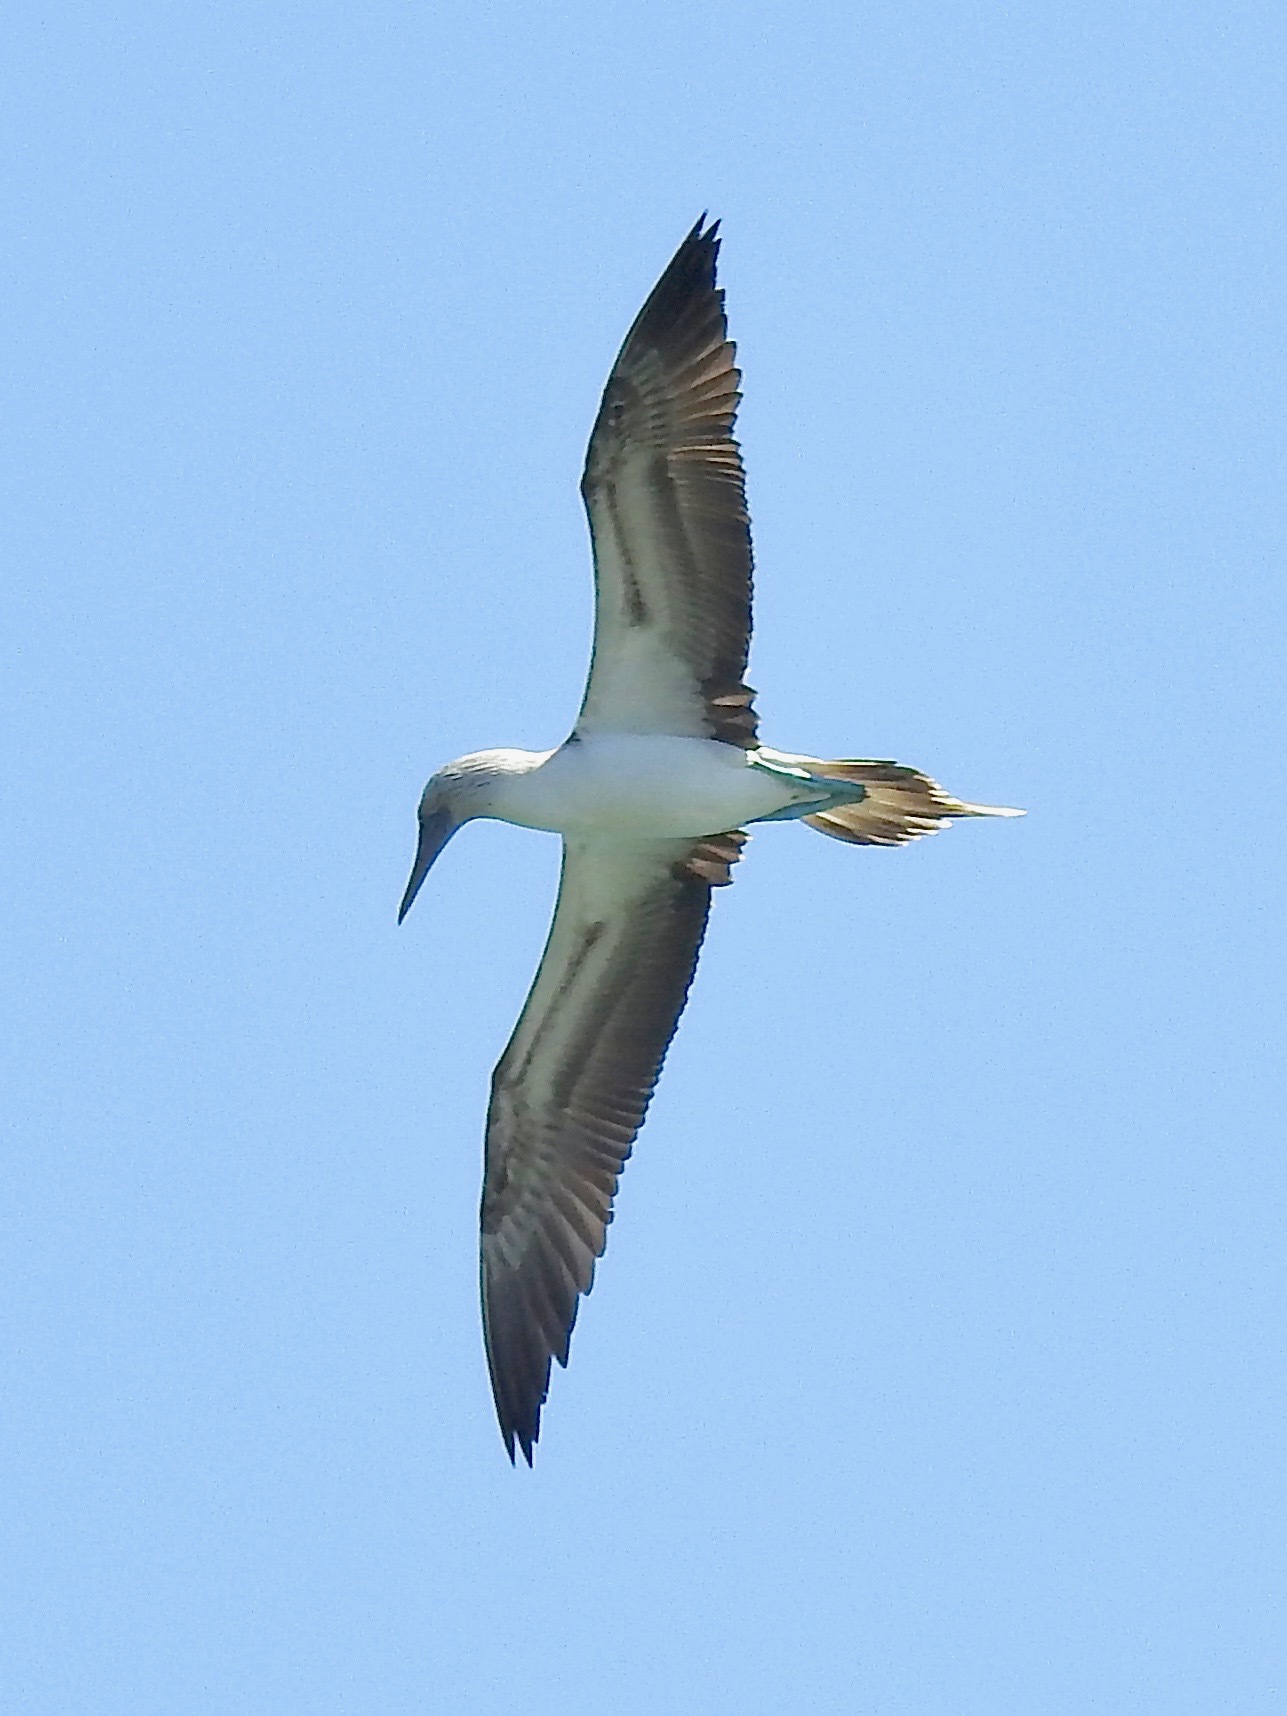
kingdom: Animalia
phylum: Chordata
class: Aves
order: Suliformes
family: Sulidae
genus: Sula
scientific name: Sula nebouxii
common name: Blue-footed booby
